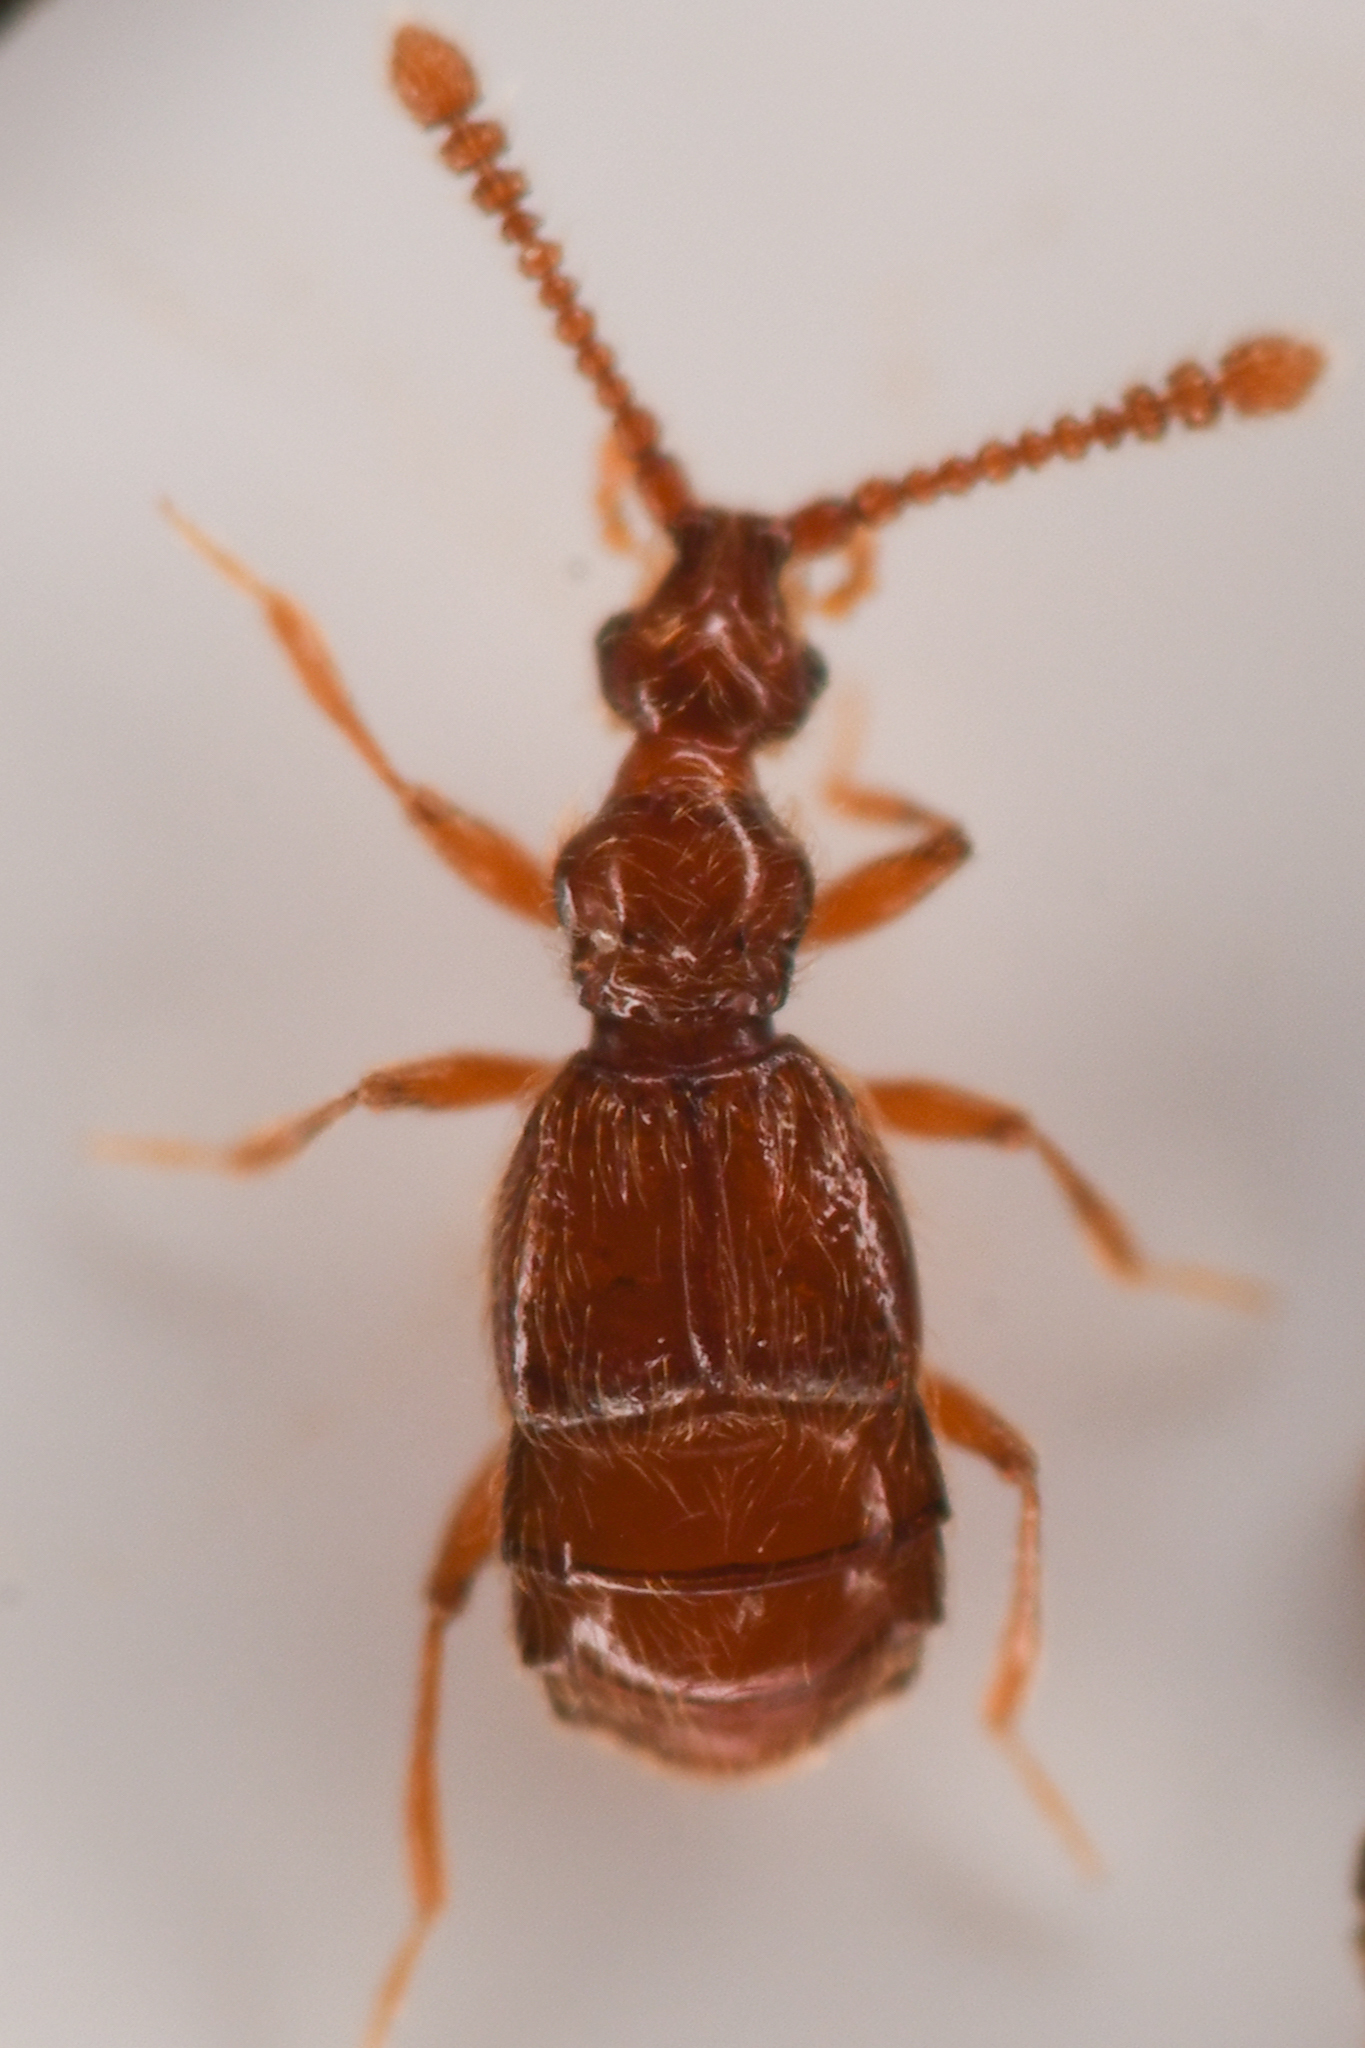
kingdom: Animalia
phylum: Arthropoda
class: Insecta
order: Coleoptera
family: Staphylinidae
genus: Morius
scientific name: Morius occidens
